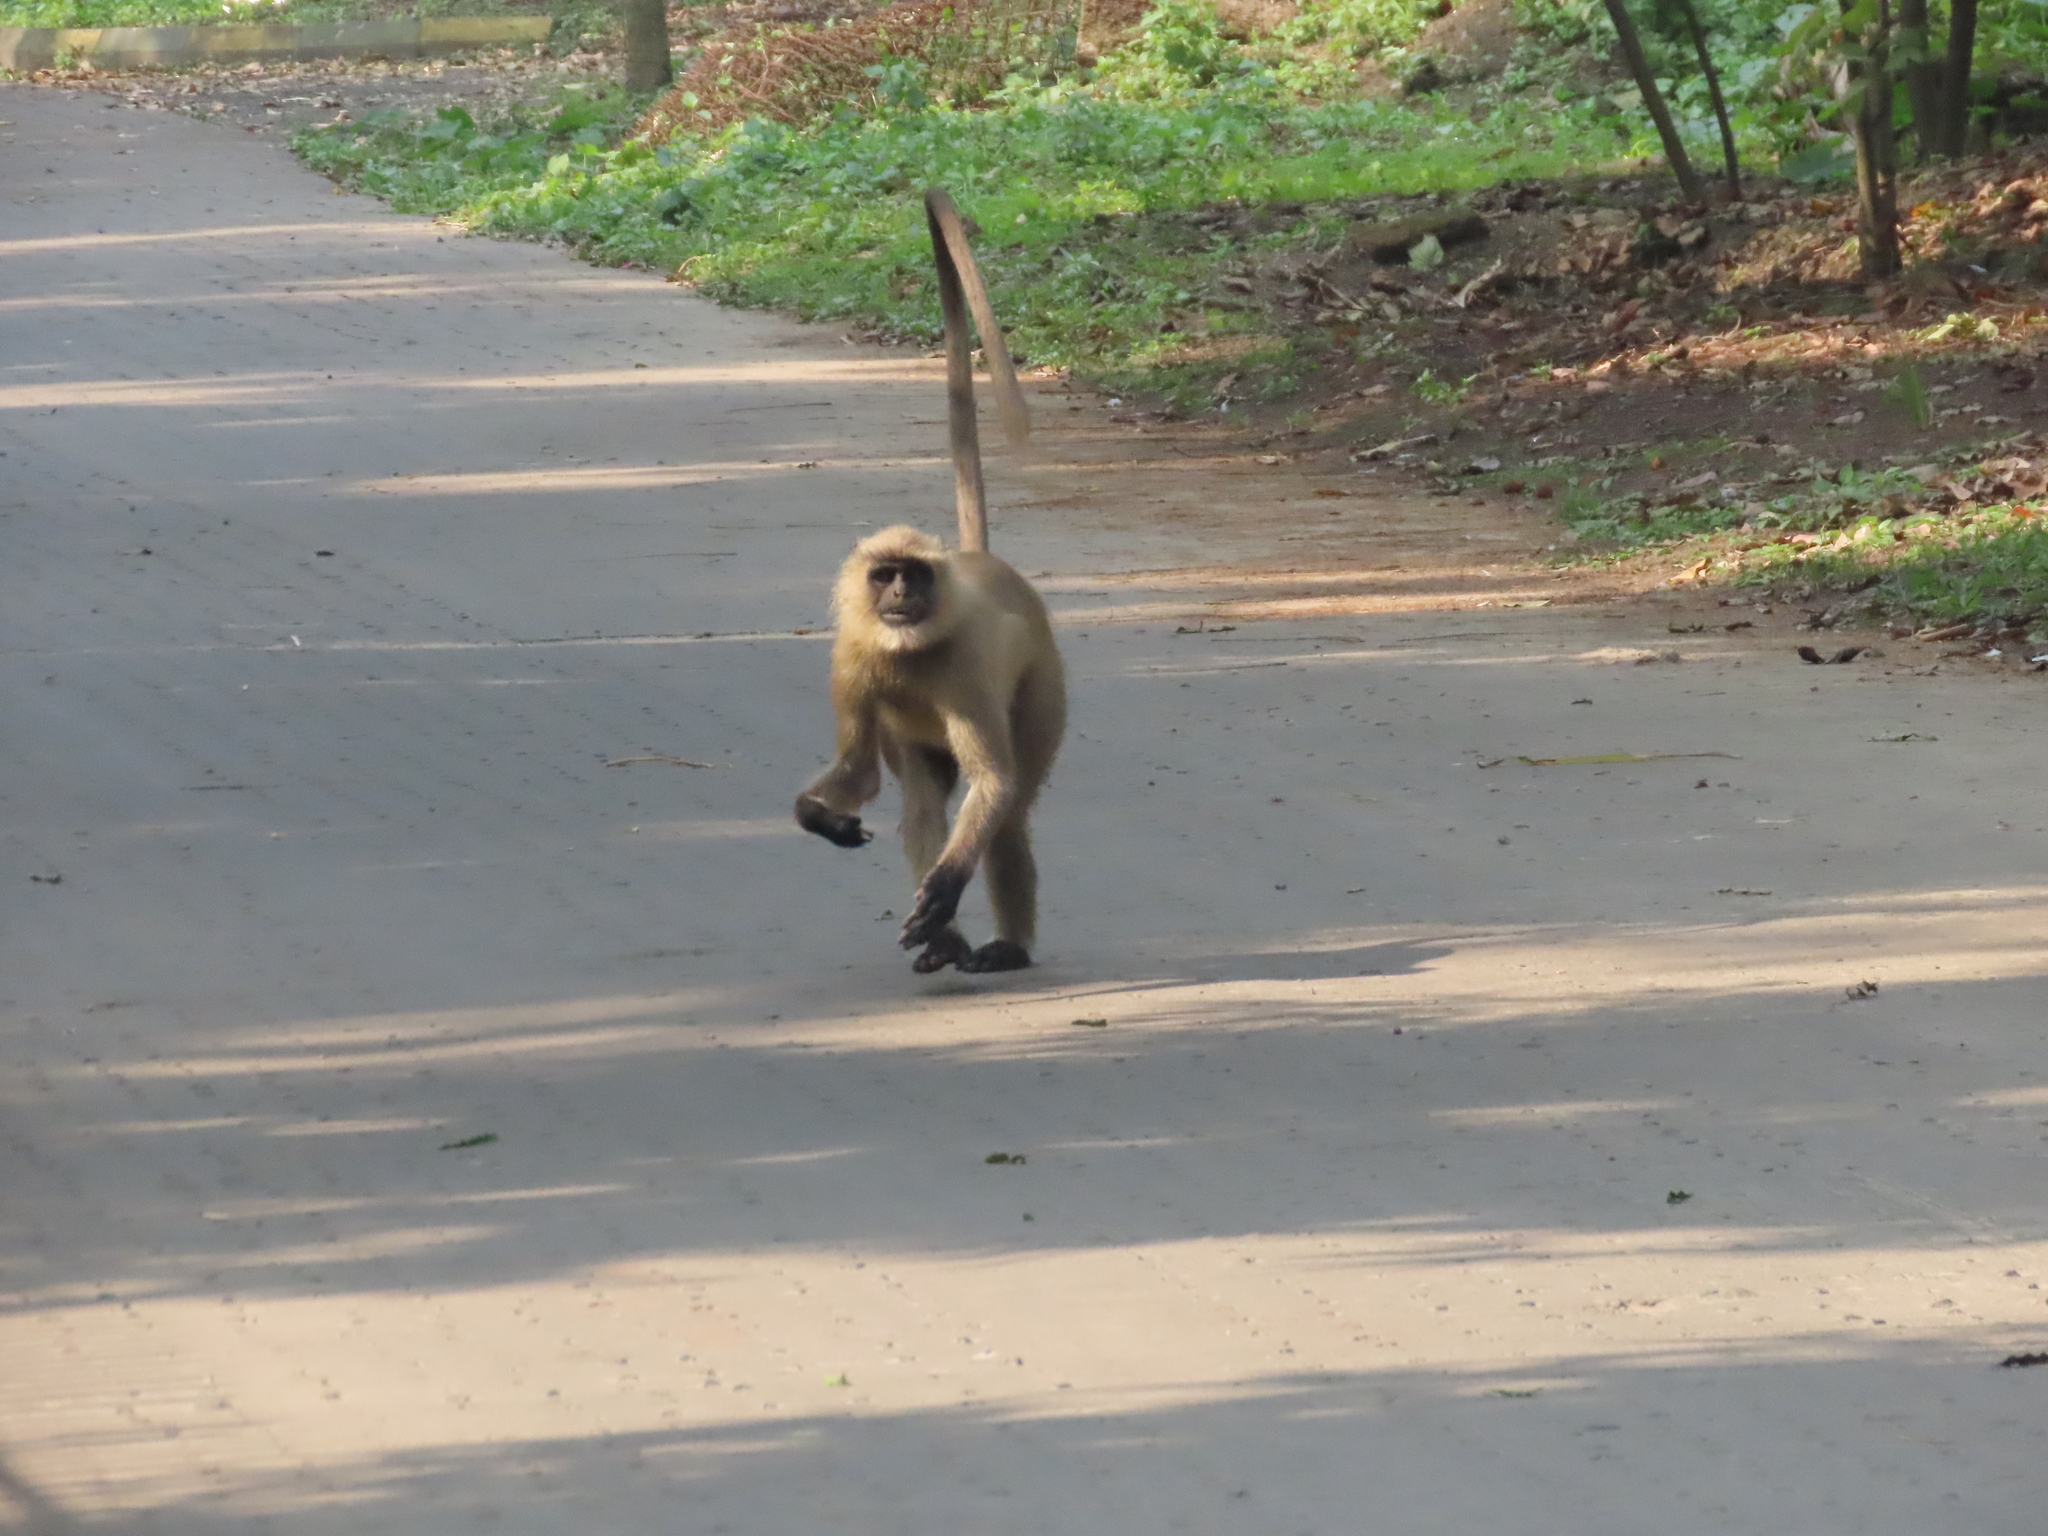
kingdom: Animalia
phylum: Chordata
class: Mammalia
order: Primates
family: Cercopithecidae
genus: Semnopithecus
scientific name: Semnopithecus entellus
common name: Northern plains gray langur
